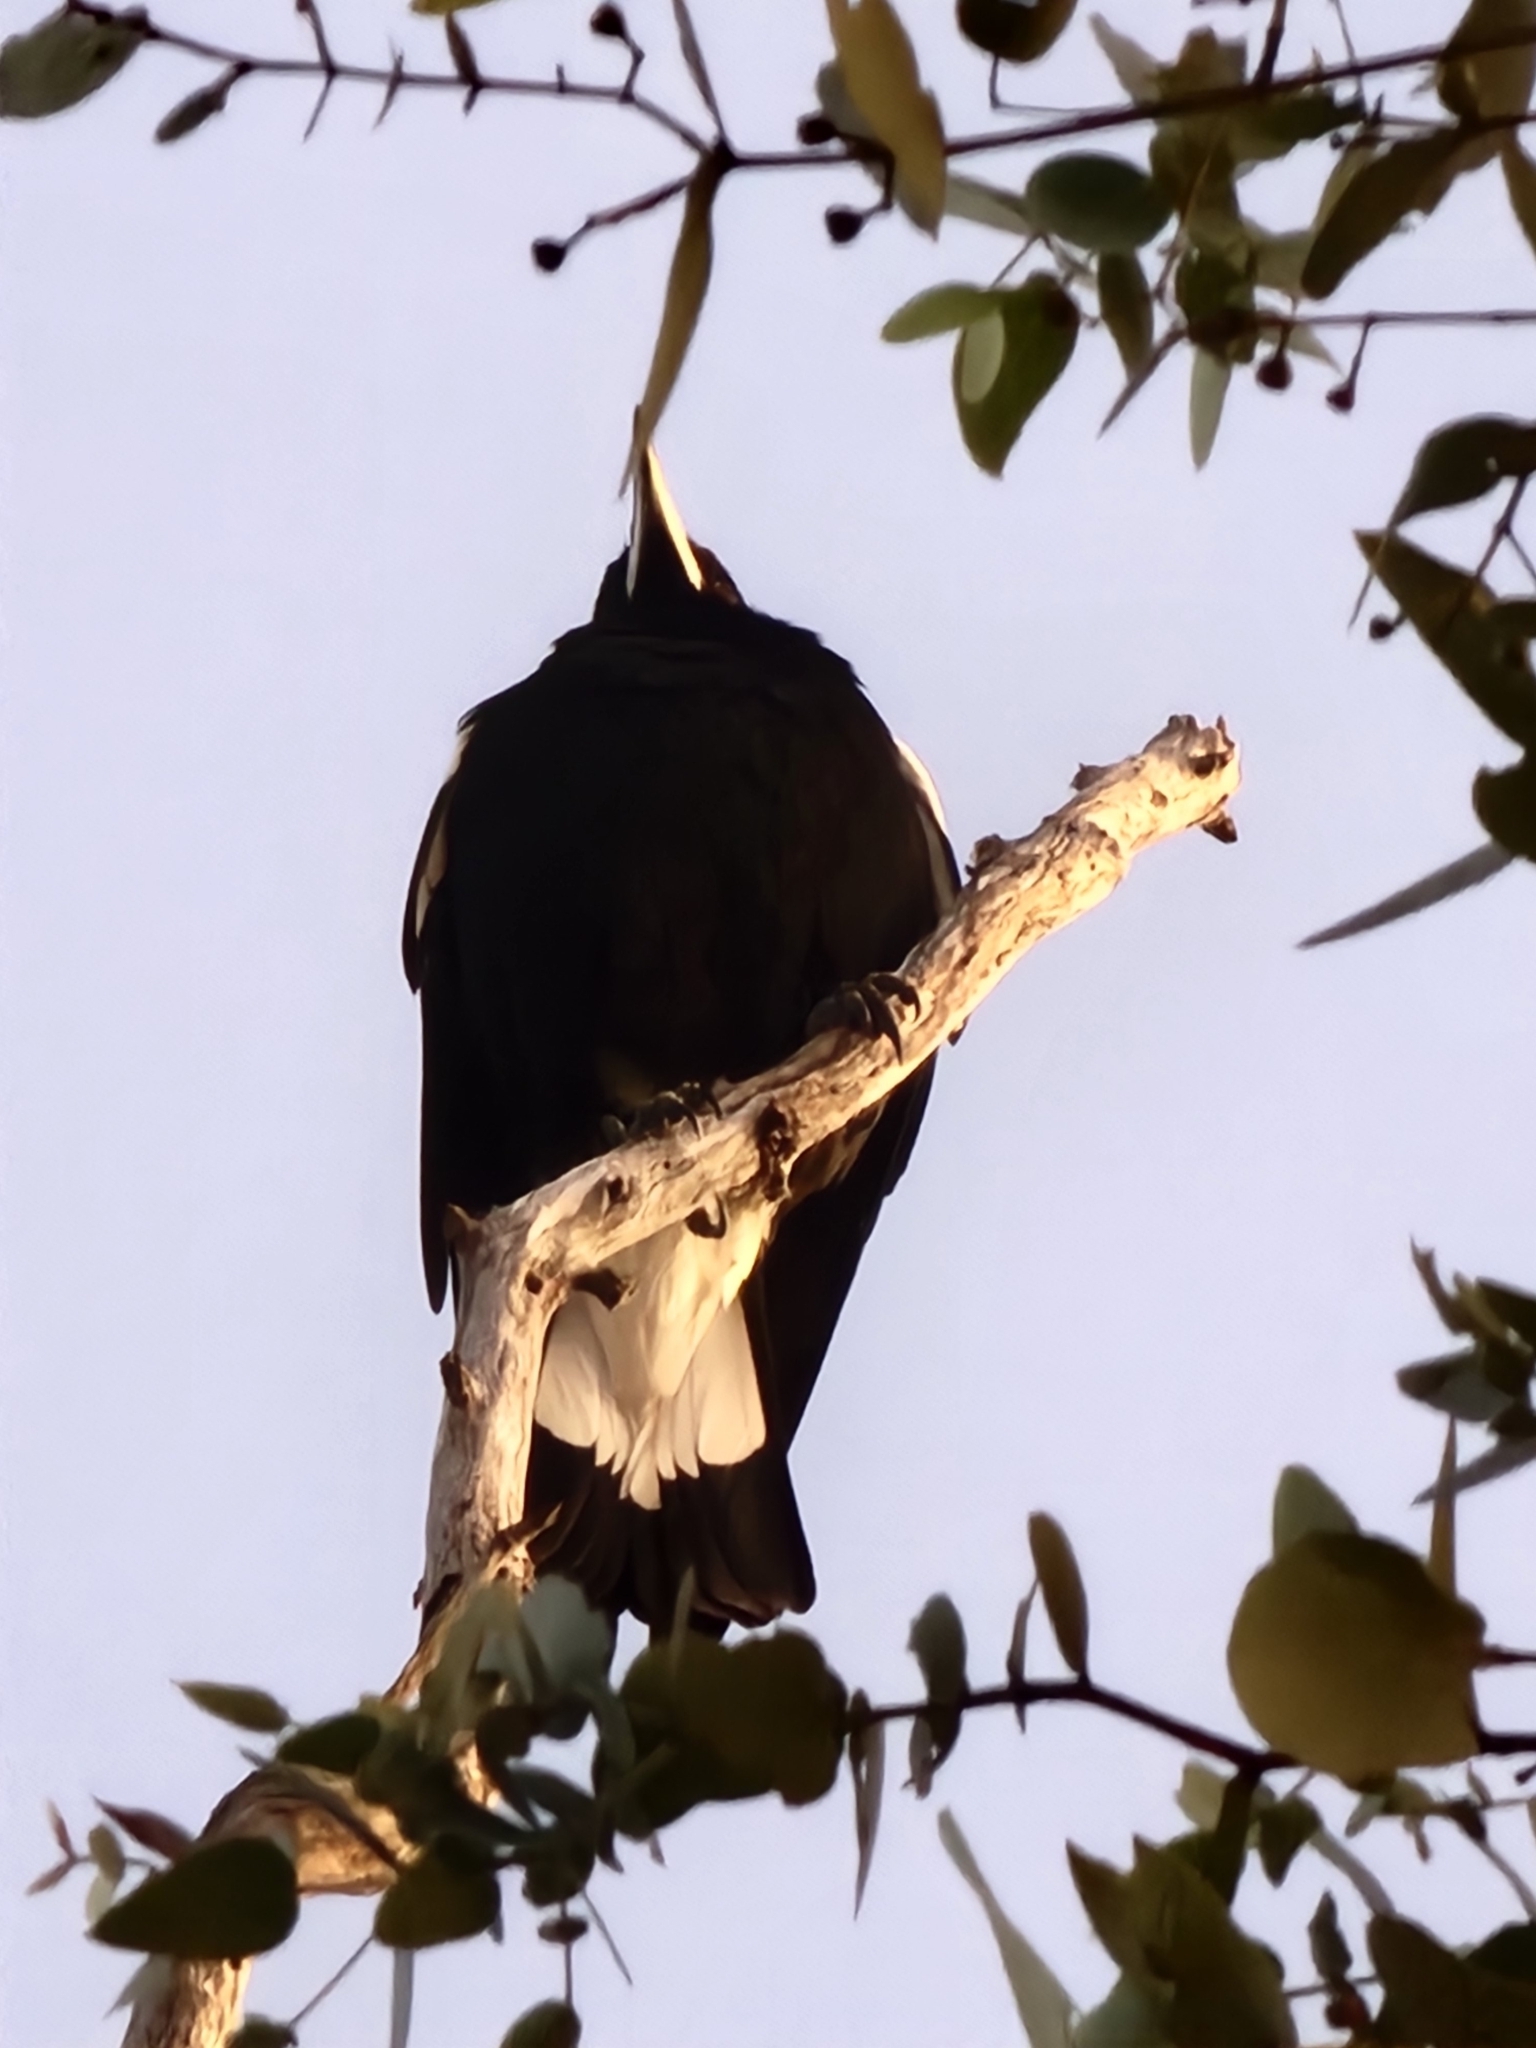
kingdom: Animalia
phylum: Chordata
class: Aves
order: Passeriformes
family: Cracticidae
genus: Gymnorhina
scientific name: Gymnorhina tibicen
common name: Australian magpie
